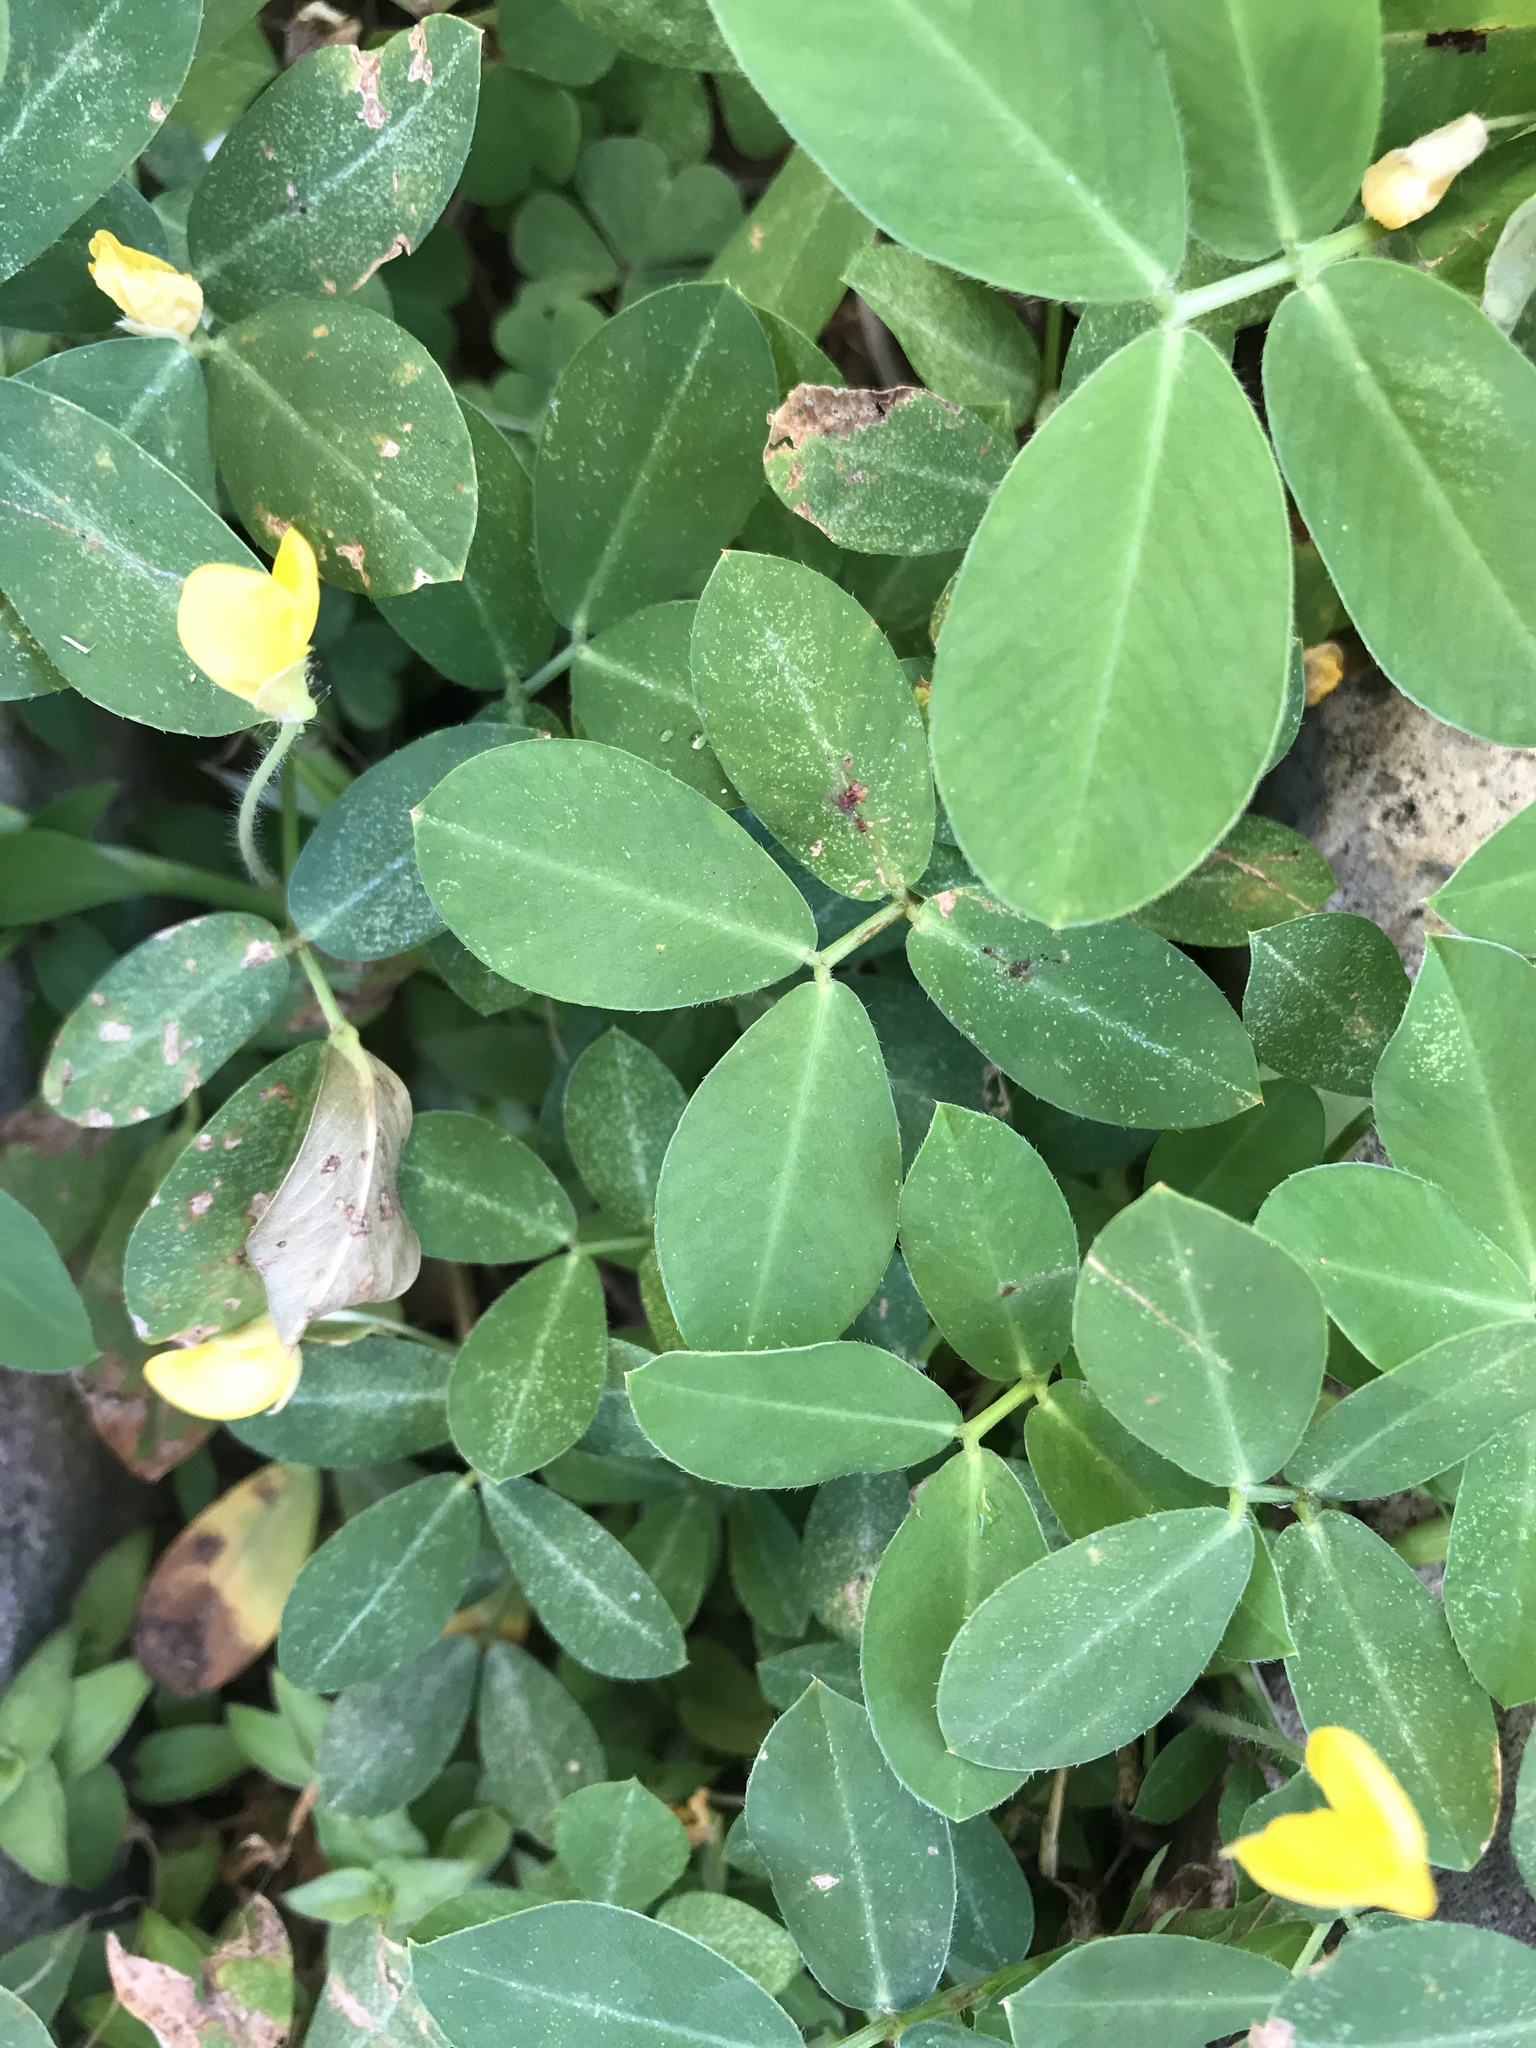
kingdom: Plantae
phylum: Tracheophyta
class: Magnoliopsida
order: Fabales
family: Fabaceae
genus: Arachis
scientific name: Arachis repens
